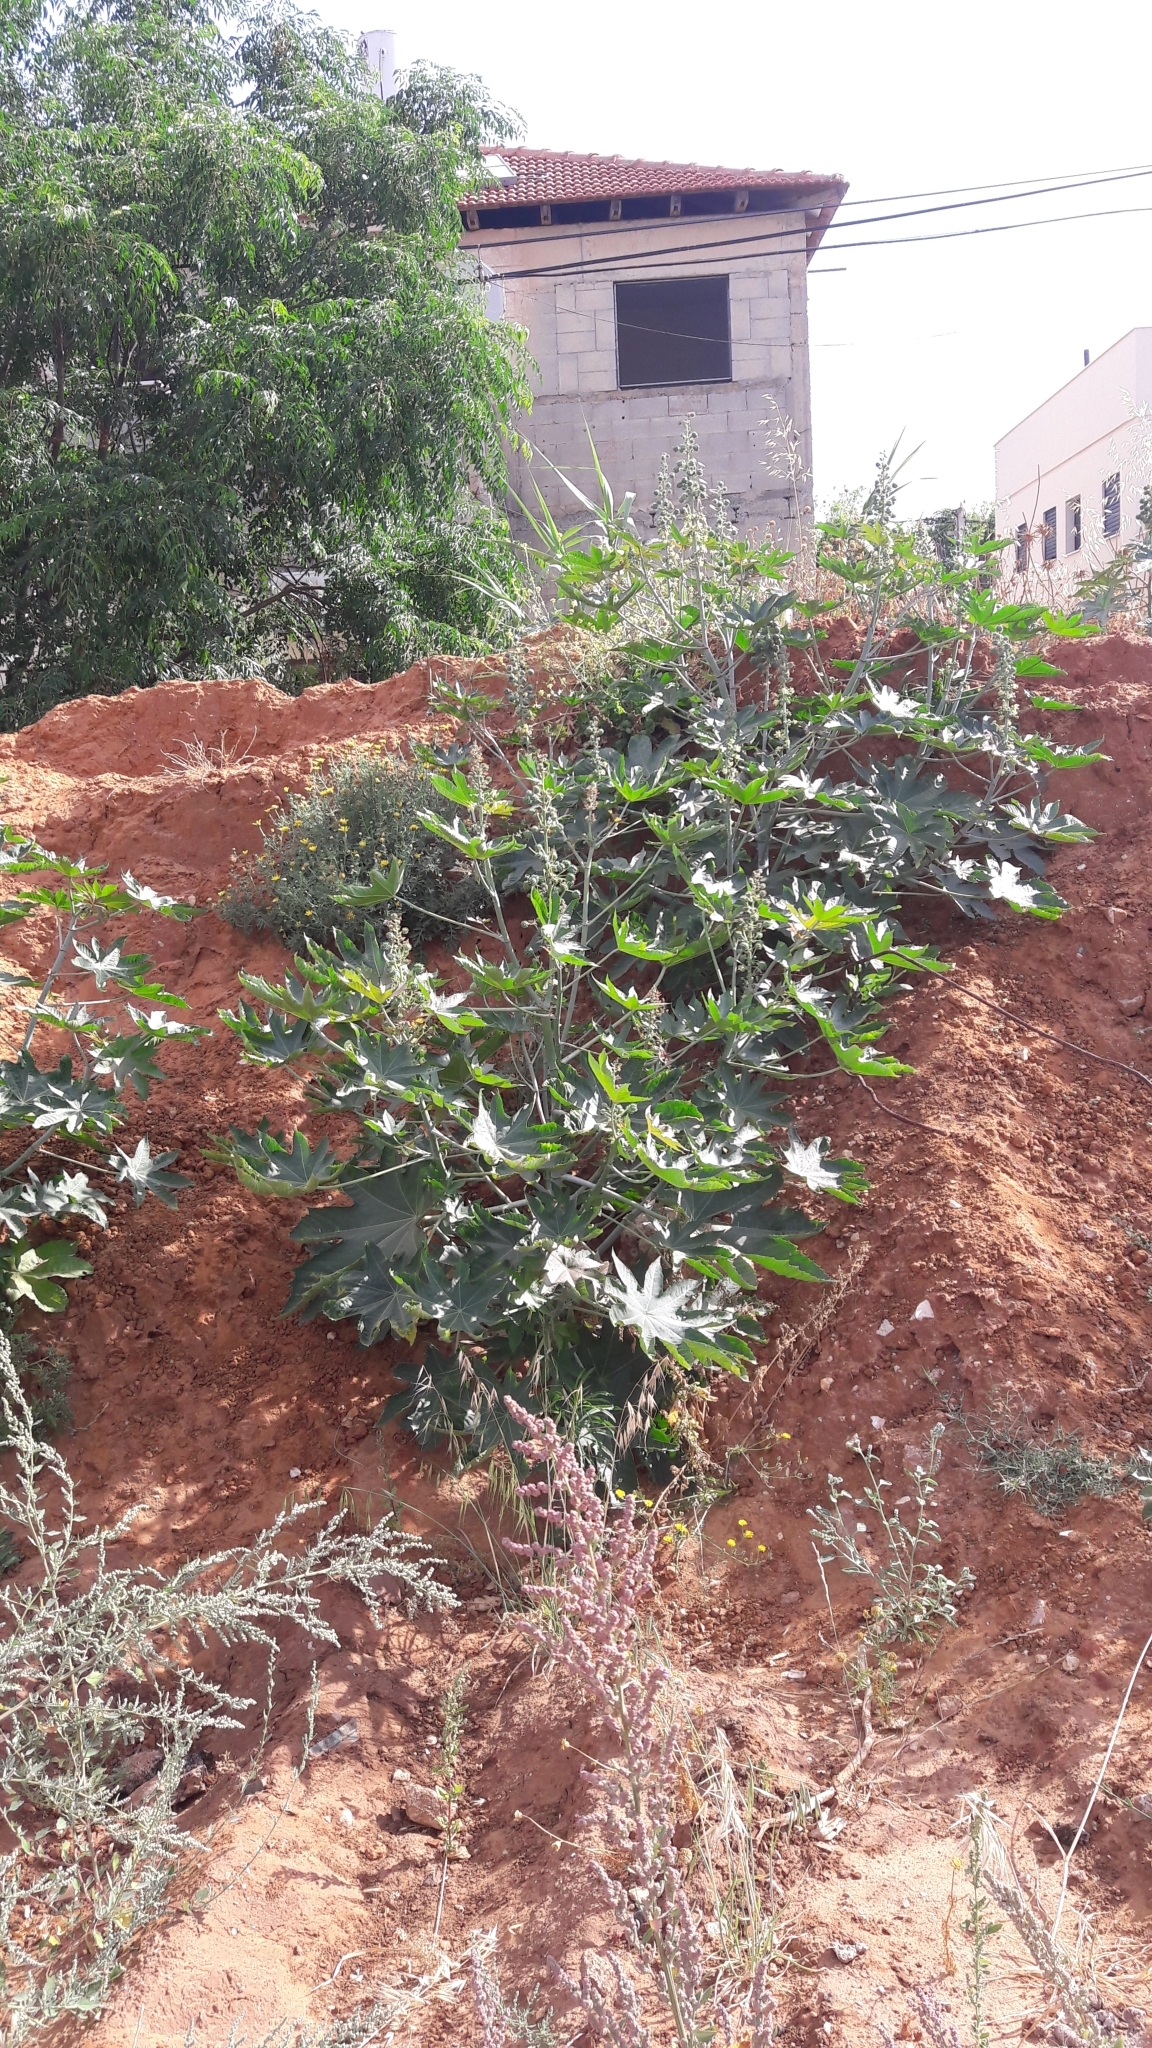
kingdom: Plantae
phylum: Tracheophyta
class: Magnoliopsida
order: Malpighiales
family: Euphorbiaceae
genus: Ricinus
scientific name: Ricinus communis
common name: Castor-oil-plant
